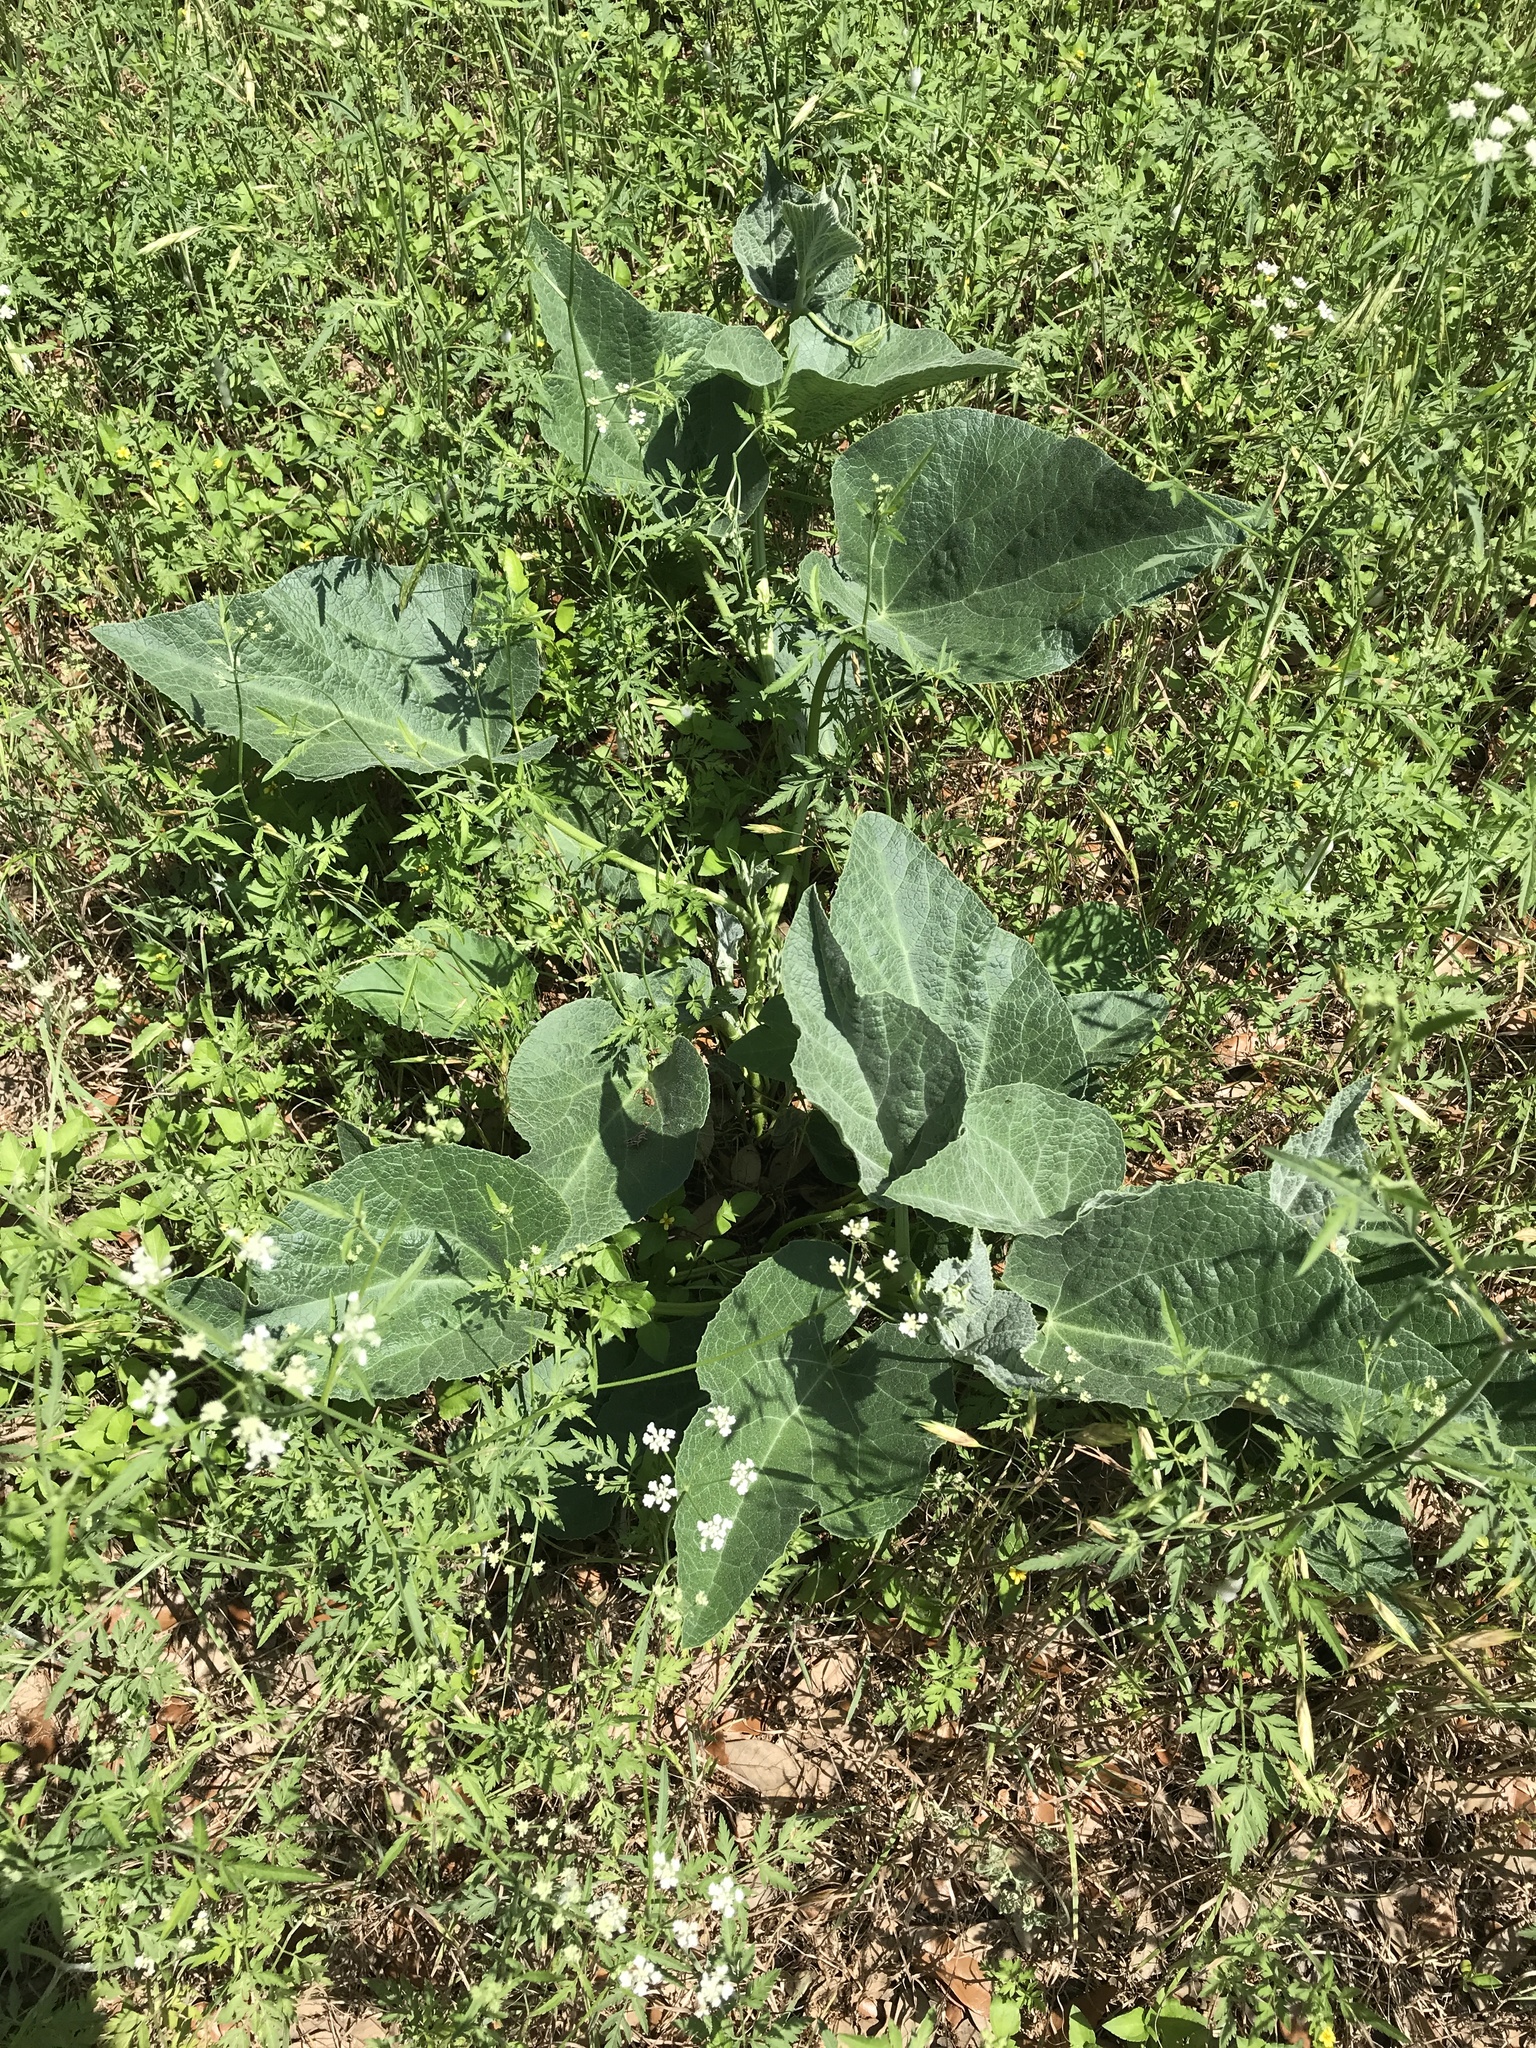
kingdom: Plantae
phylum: Tracheophyta
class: Magnoliopsida
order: Cucurbitales
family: Cucurbitaceae
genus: Cucurbita
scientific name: Cucurbita foetidissima
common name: Buffalo gourd
